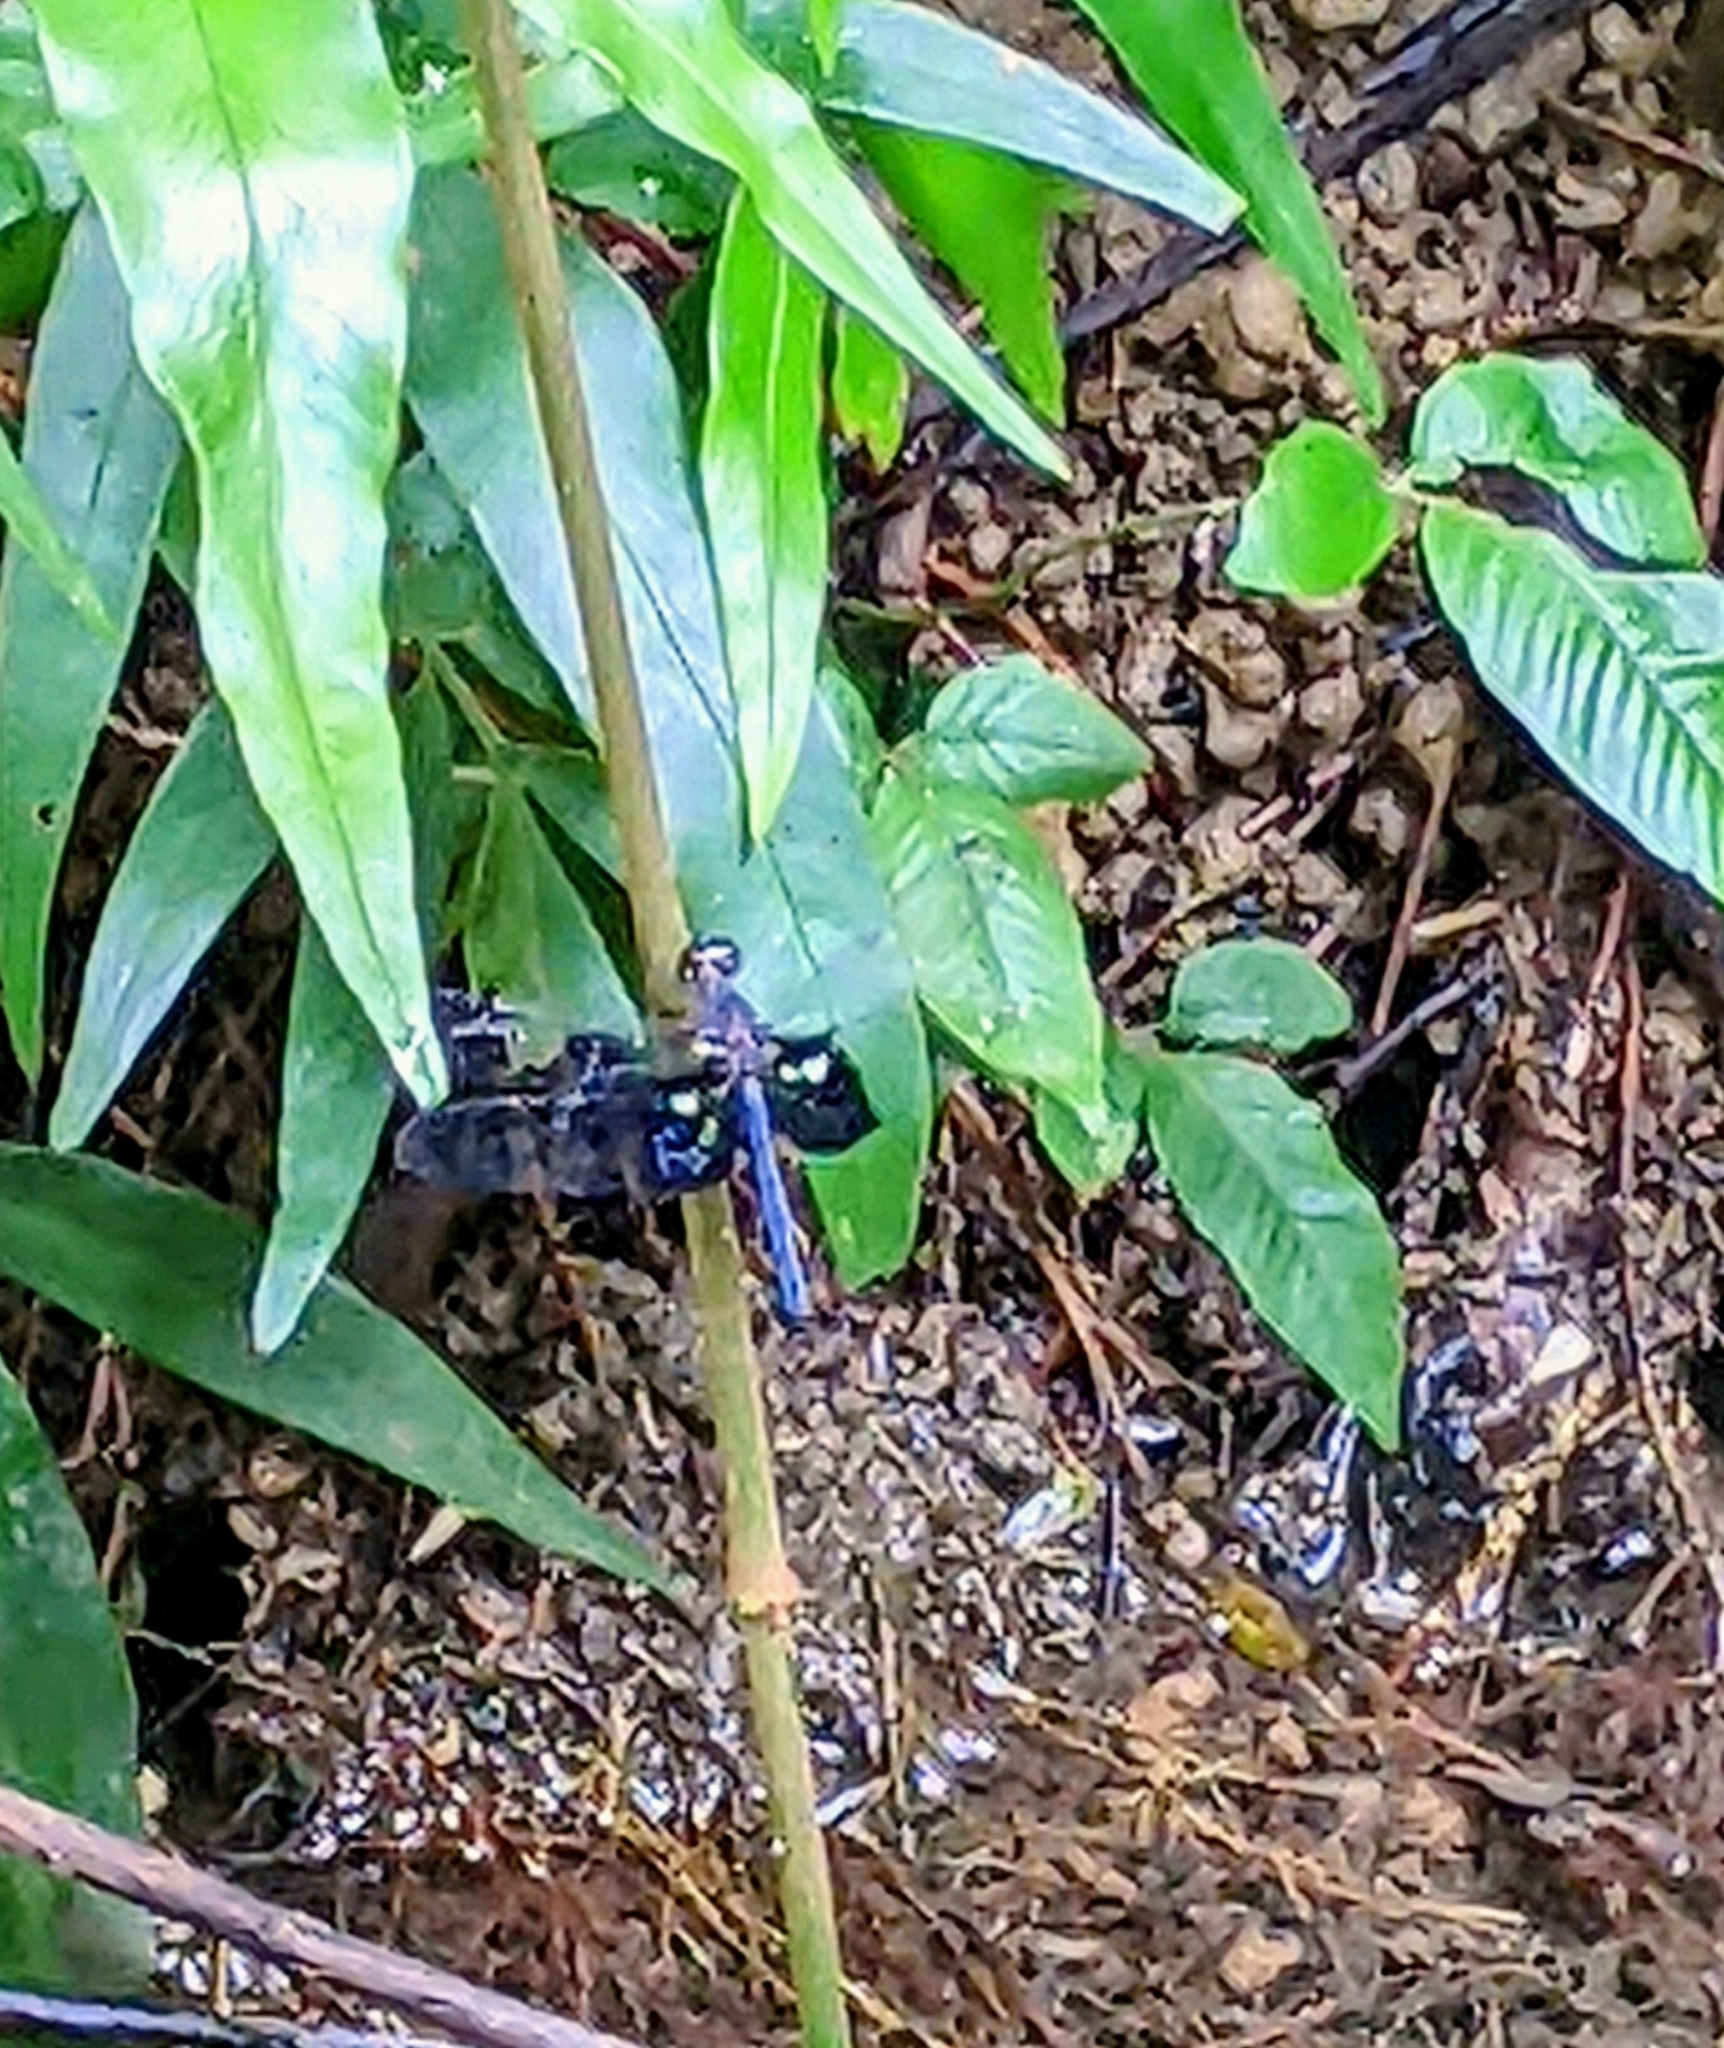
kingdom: Animalia
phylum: Arthropoda
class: Insecta
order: Odonata
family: Libellulidae
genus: Tyriobapta
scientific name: Tyriobapta torrida
